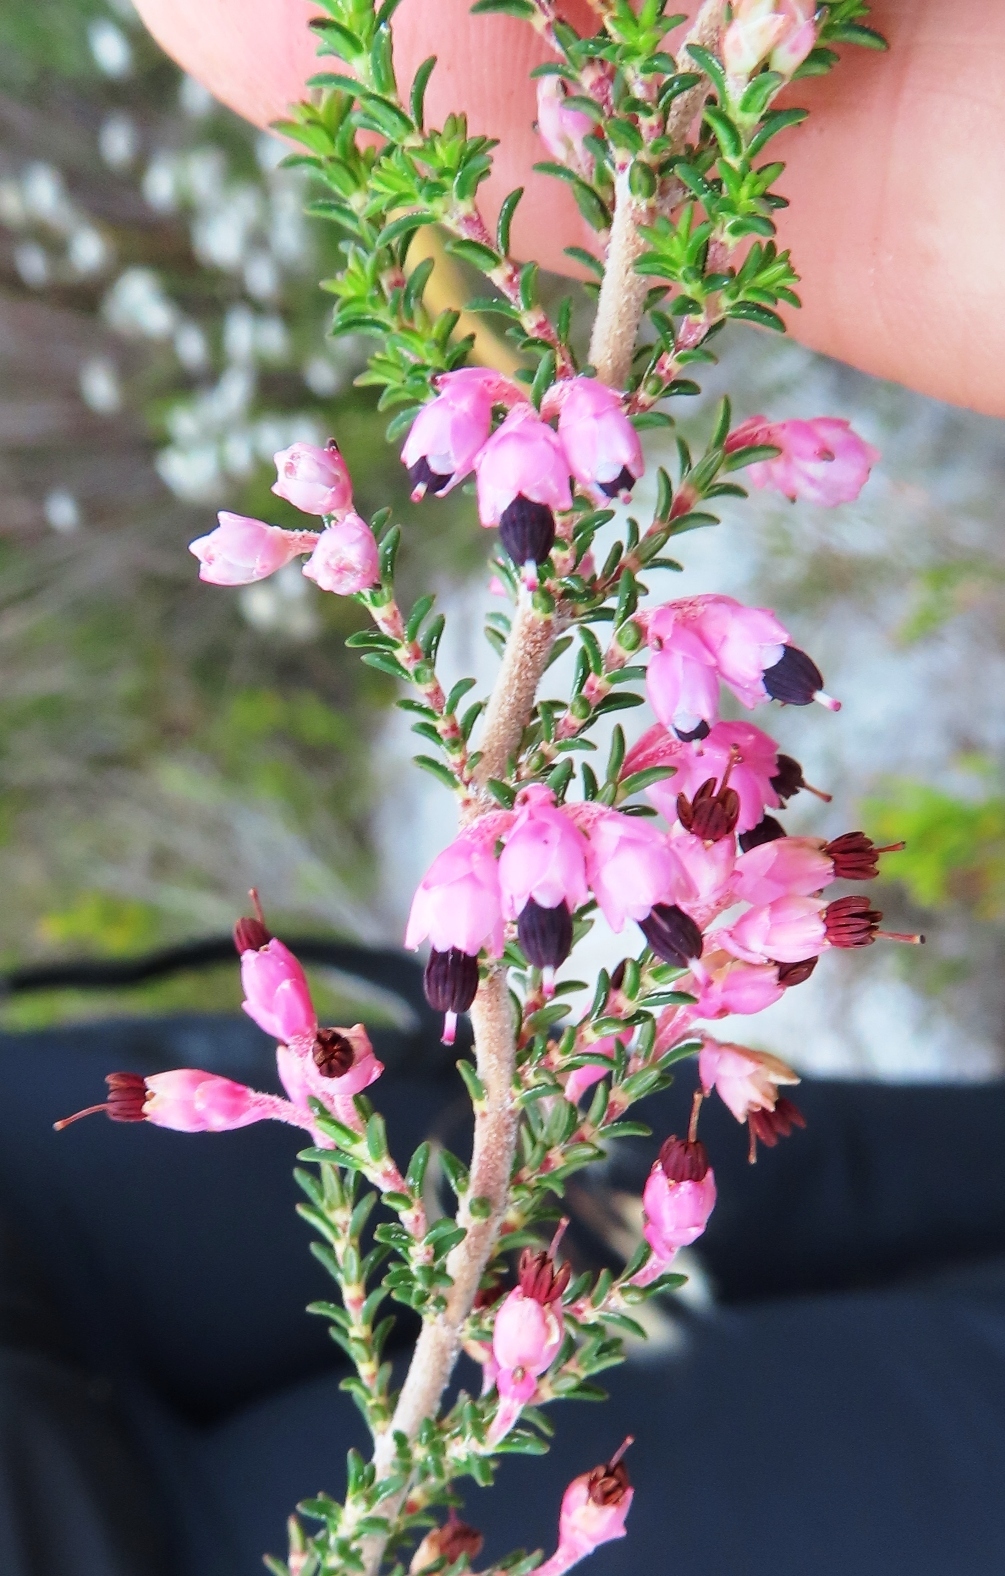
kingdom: Plantae
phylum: Tracheophyta
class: Magnoliopsida
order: Ericales
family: Ericaceae
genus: Erica
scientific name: Erica placentiflora
